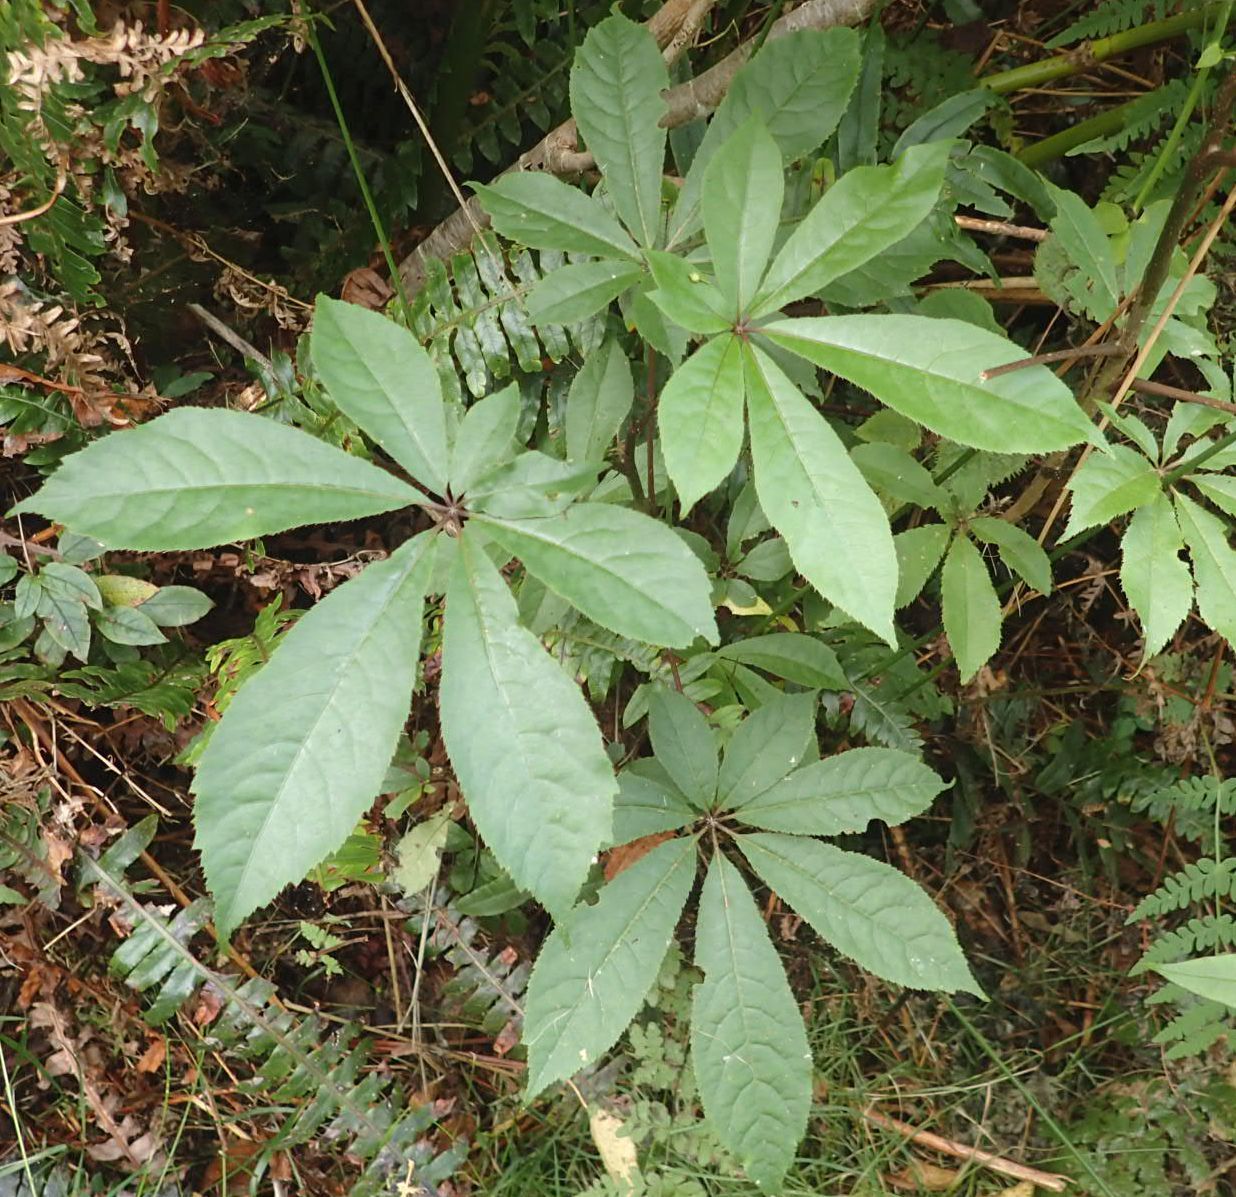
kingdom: Plantae
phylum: Tracheophyta
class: Magnoliopsida
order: Apiales
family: Araliaceae
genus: Schefflera
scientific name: Schefflera digitata
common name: Pate
